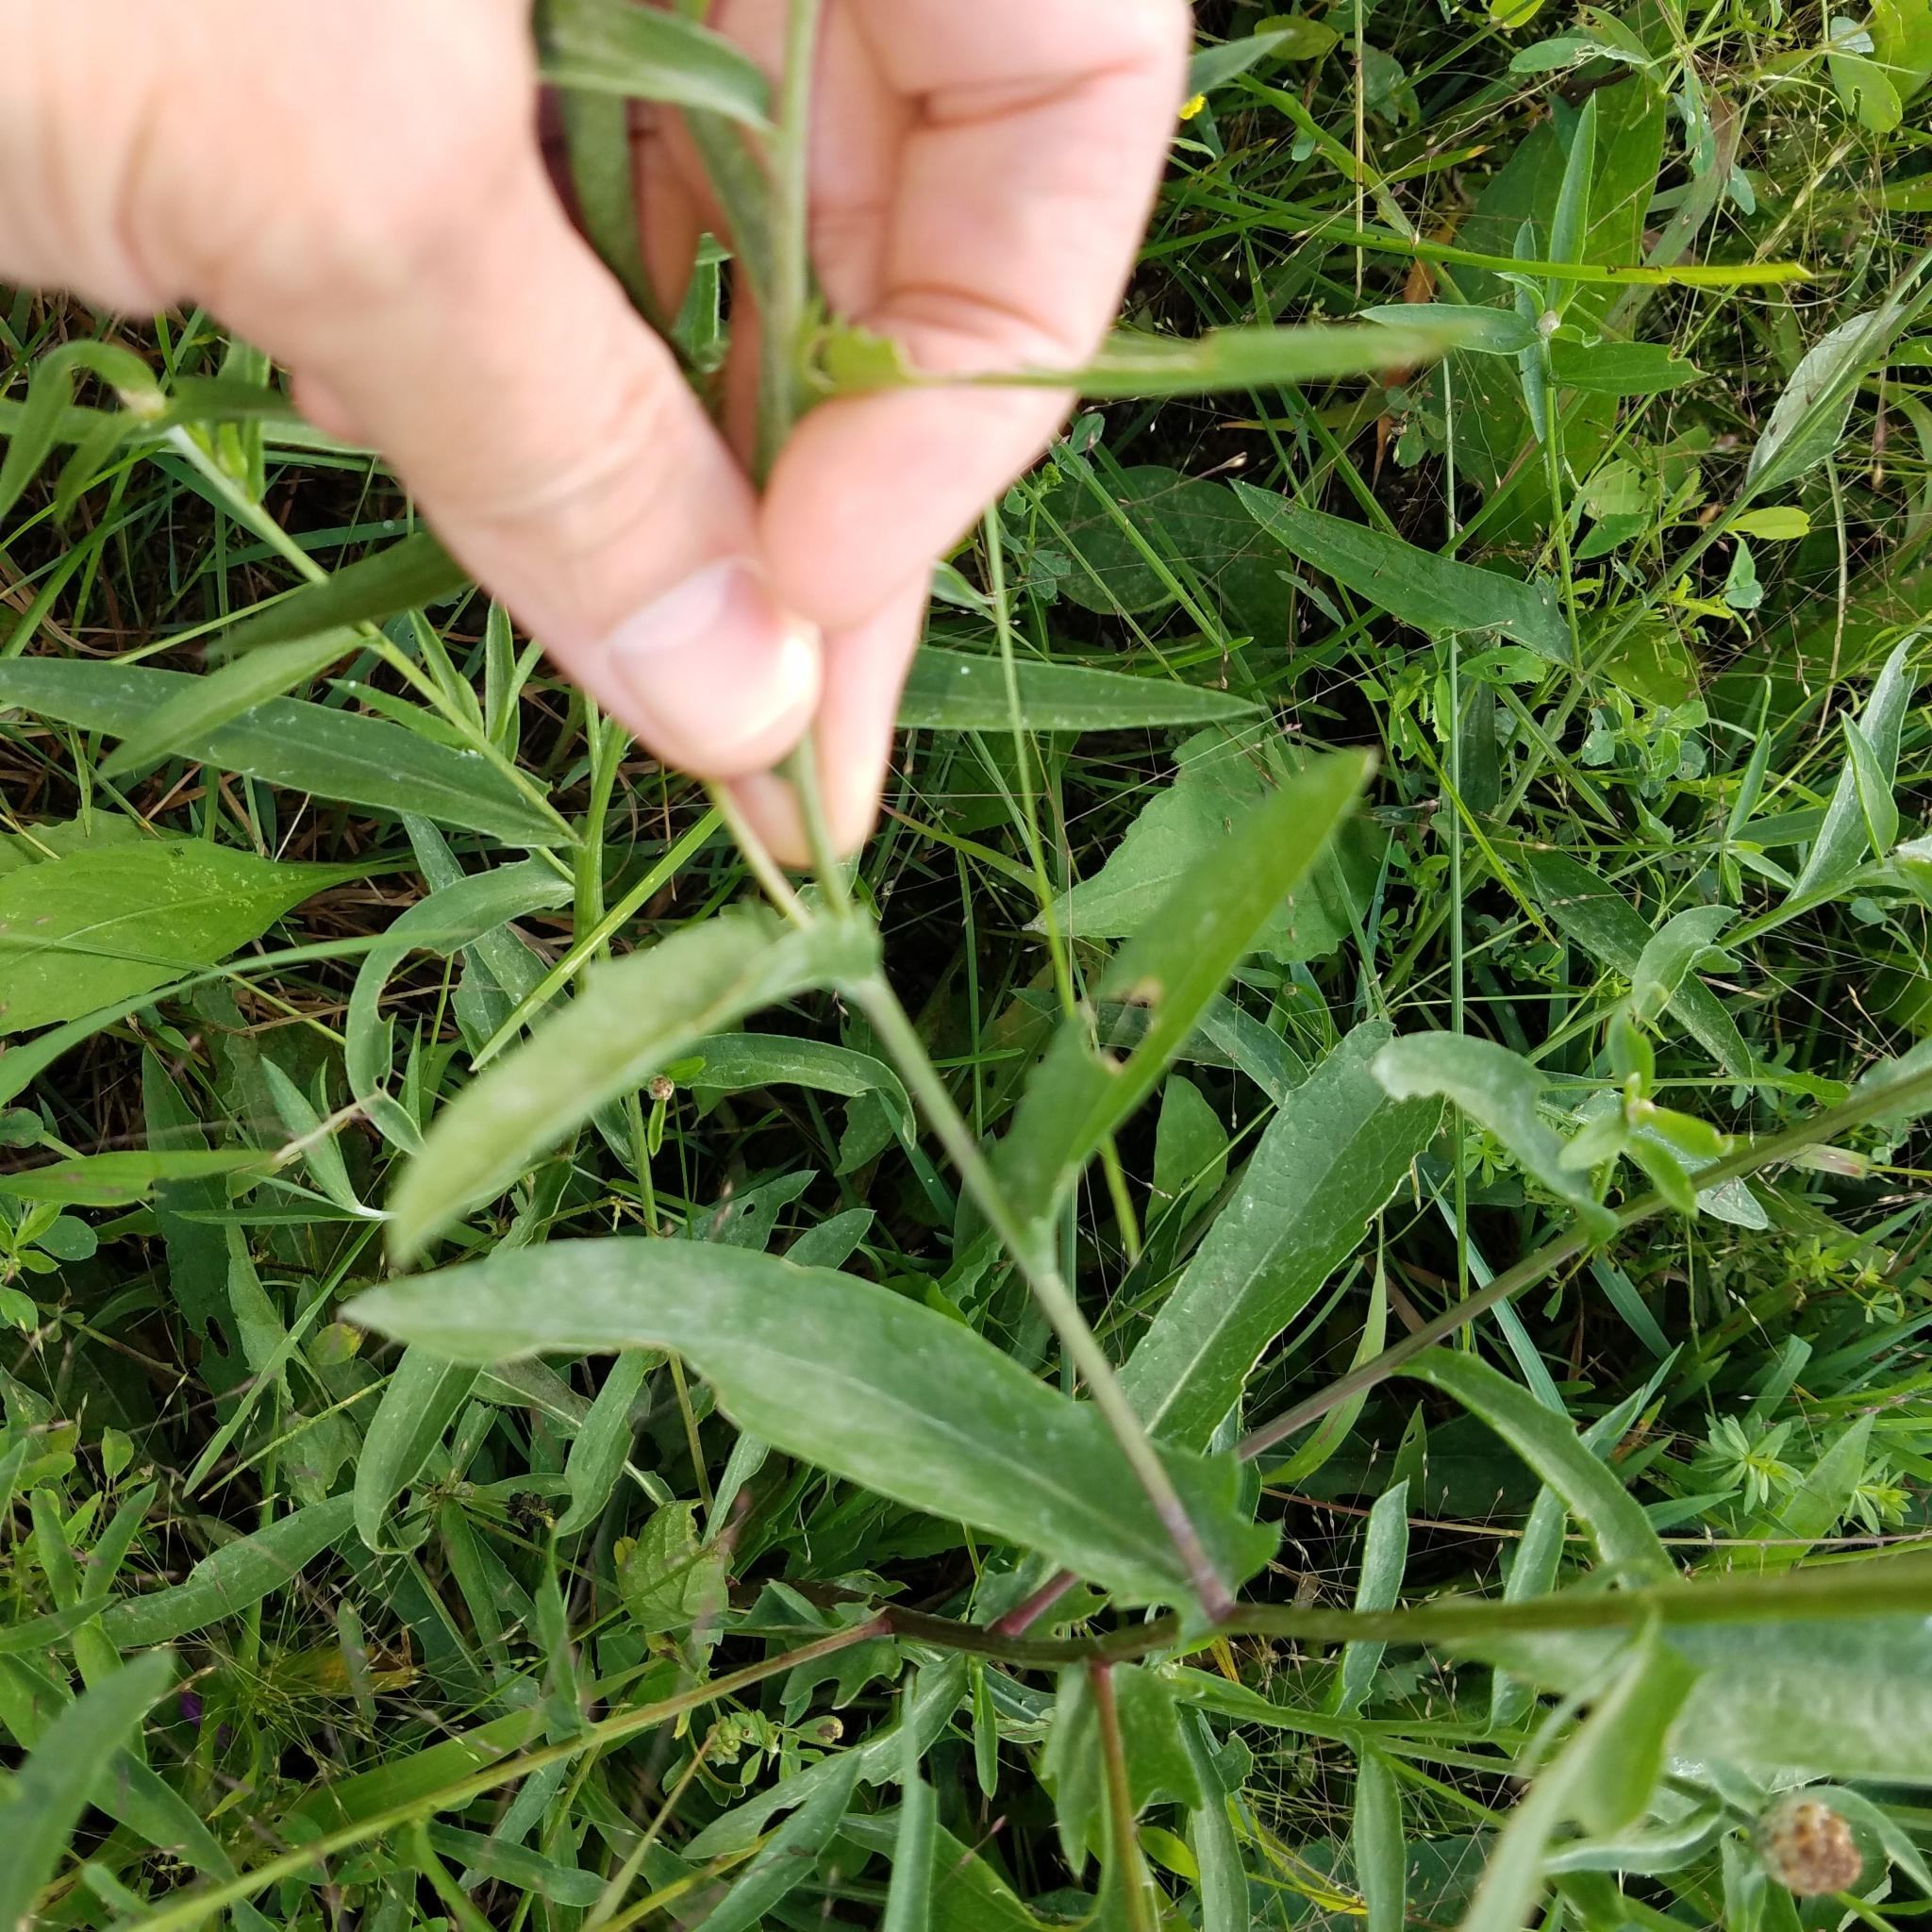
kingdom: Plantae
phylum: Tracheophyta
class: Magnoliopsida
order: Asterales
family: Asteraceae
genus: Centaurea
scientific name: Centaurea jacea
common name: Brown knapweed
